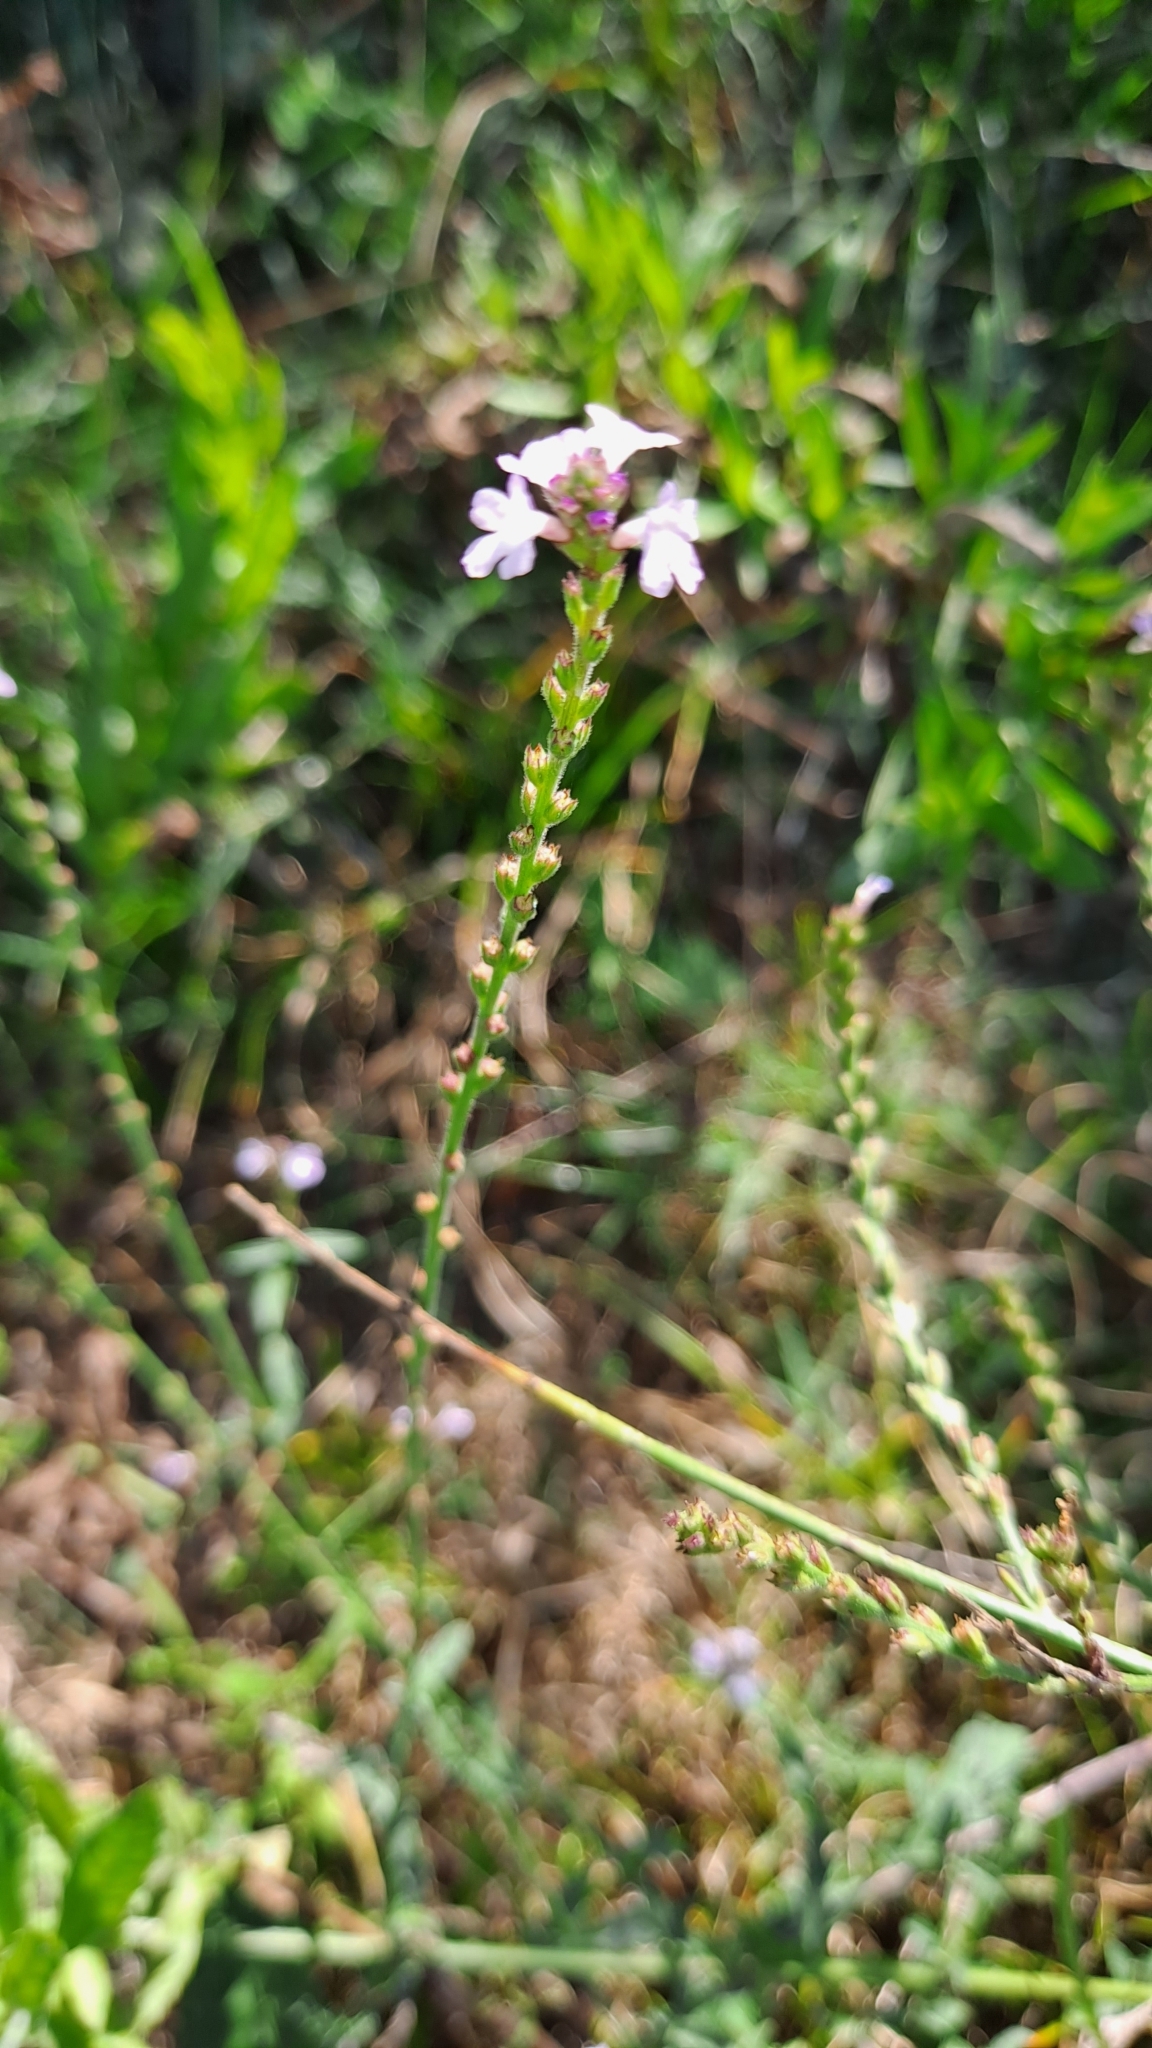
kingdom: Plantae
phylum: Tracheophyta
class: Magnoliopsida
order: Lamiales
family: Verbenaceae
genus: Verbena
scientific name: Verbena officinalis
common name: Vervain
